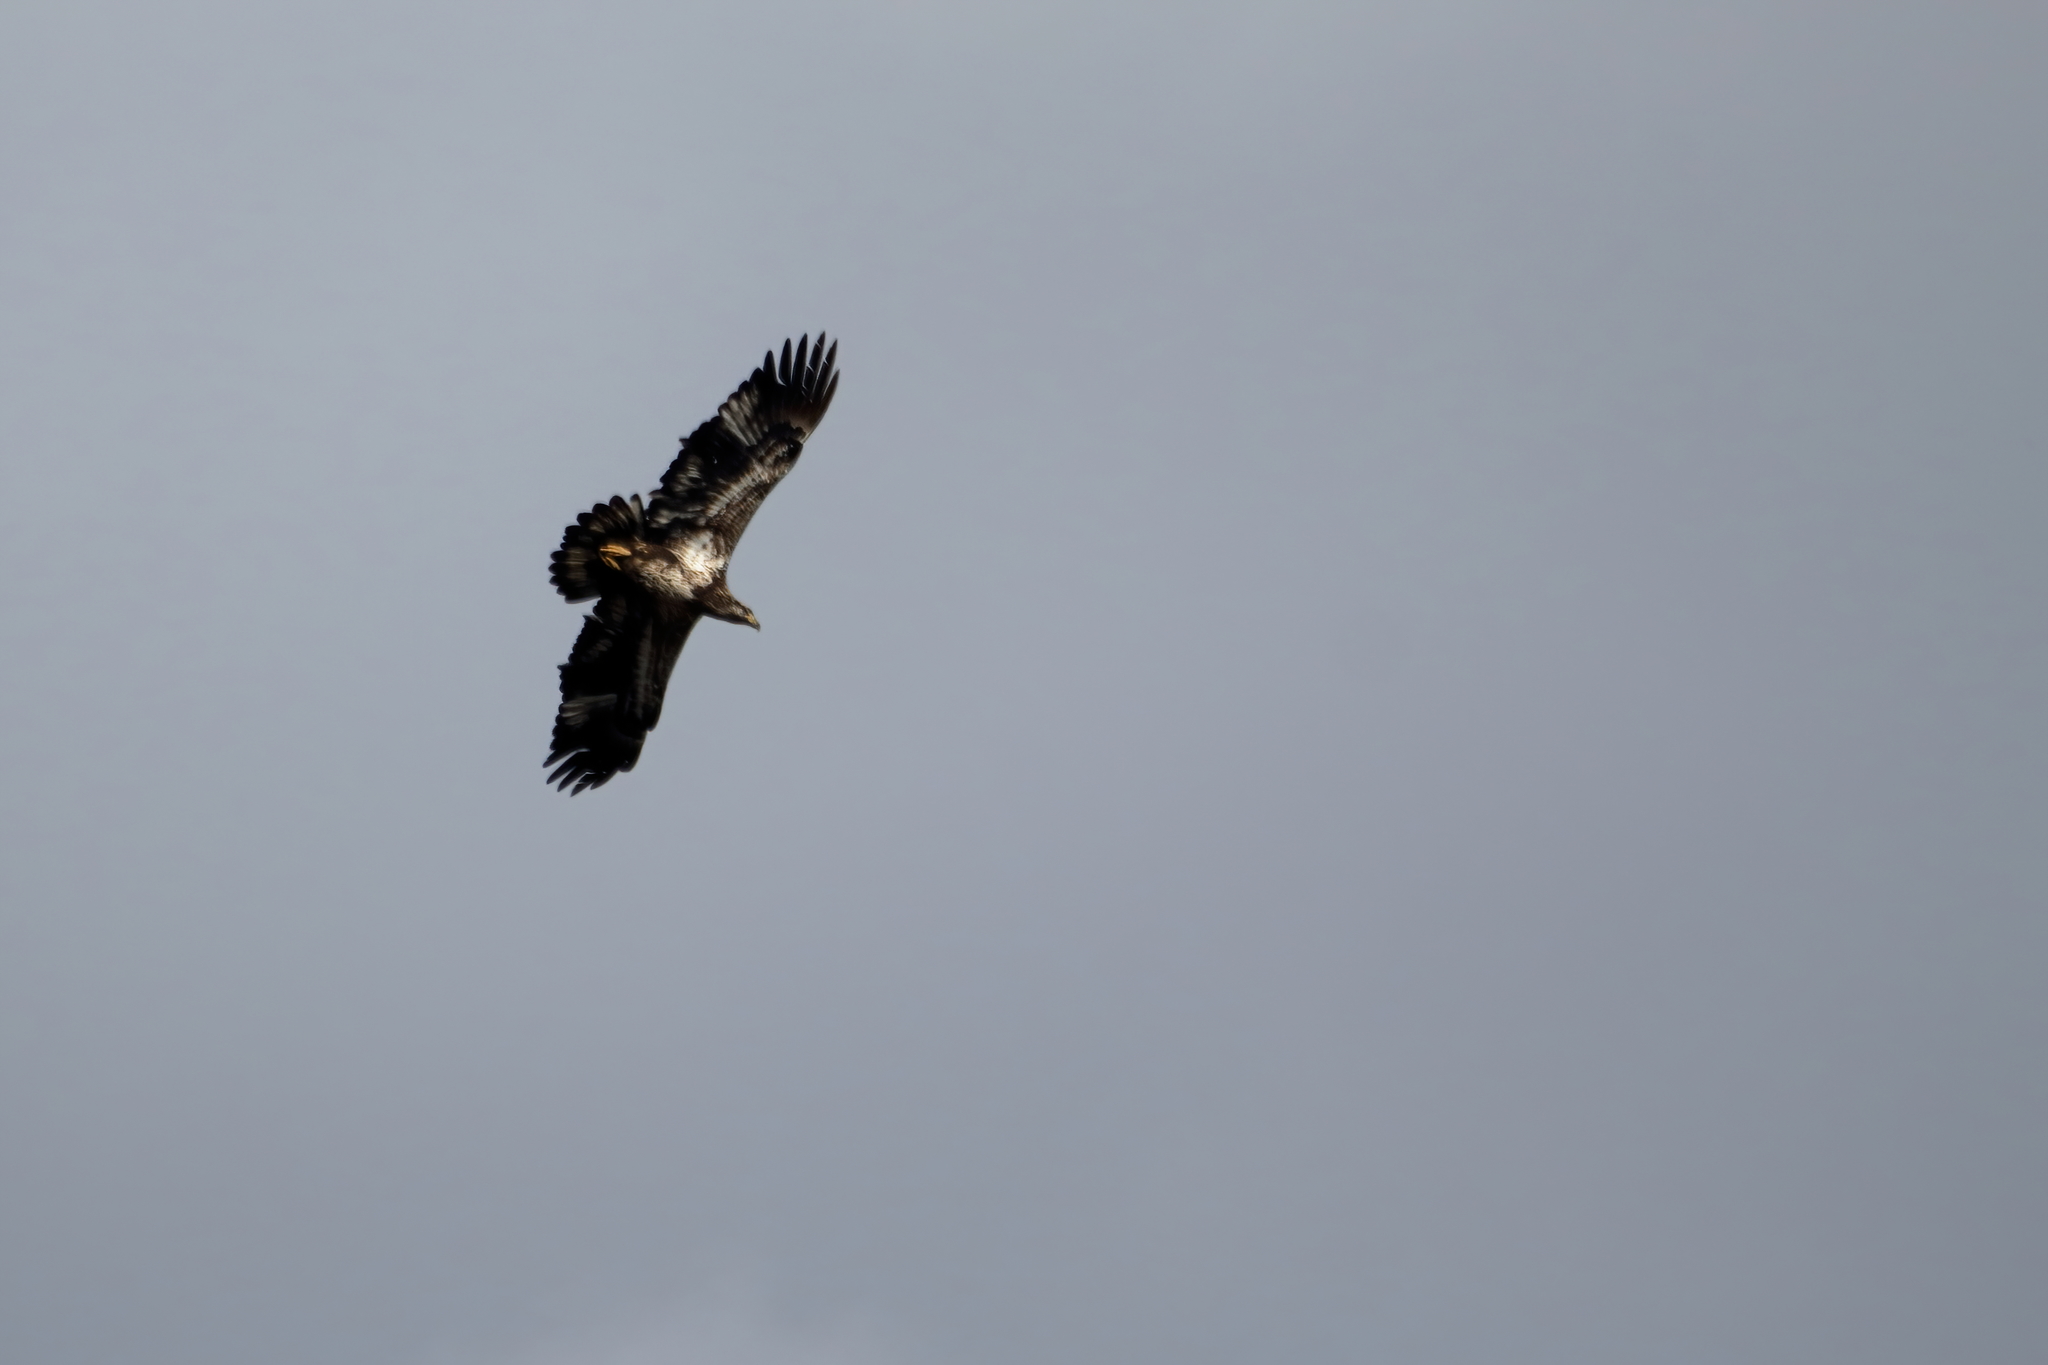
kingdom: Animalia
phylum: Chordata
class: Aves
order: Accipitriformes
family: Accipitridae
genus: Haliaeetus
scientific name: Haliaeetus leucocephalus
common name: Bald eagle
